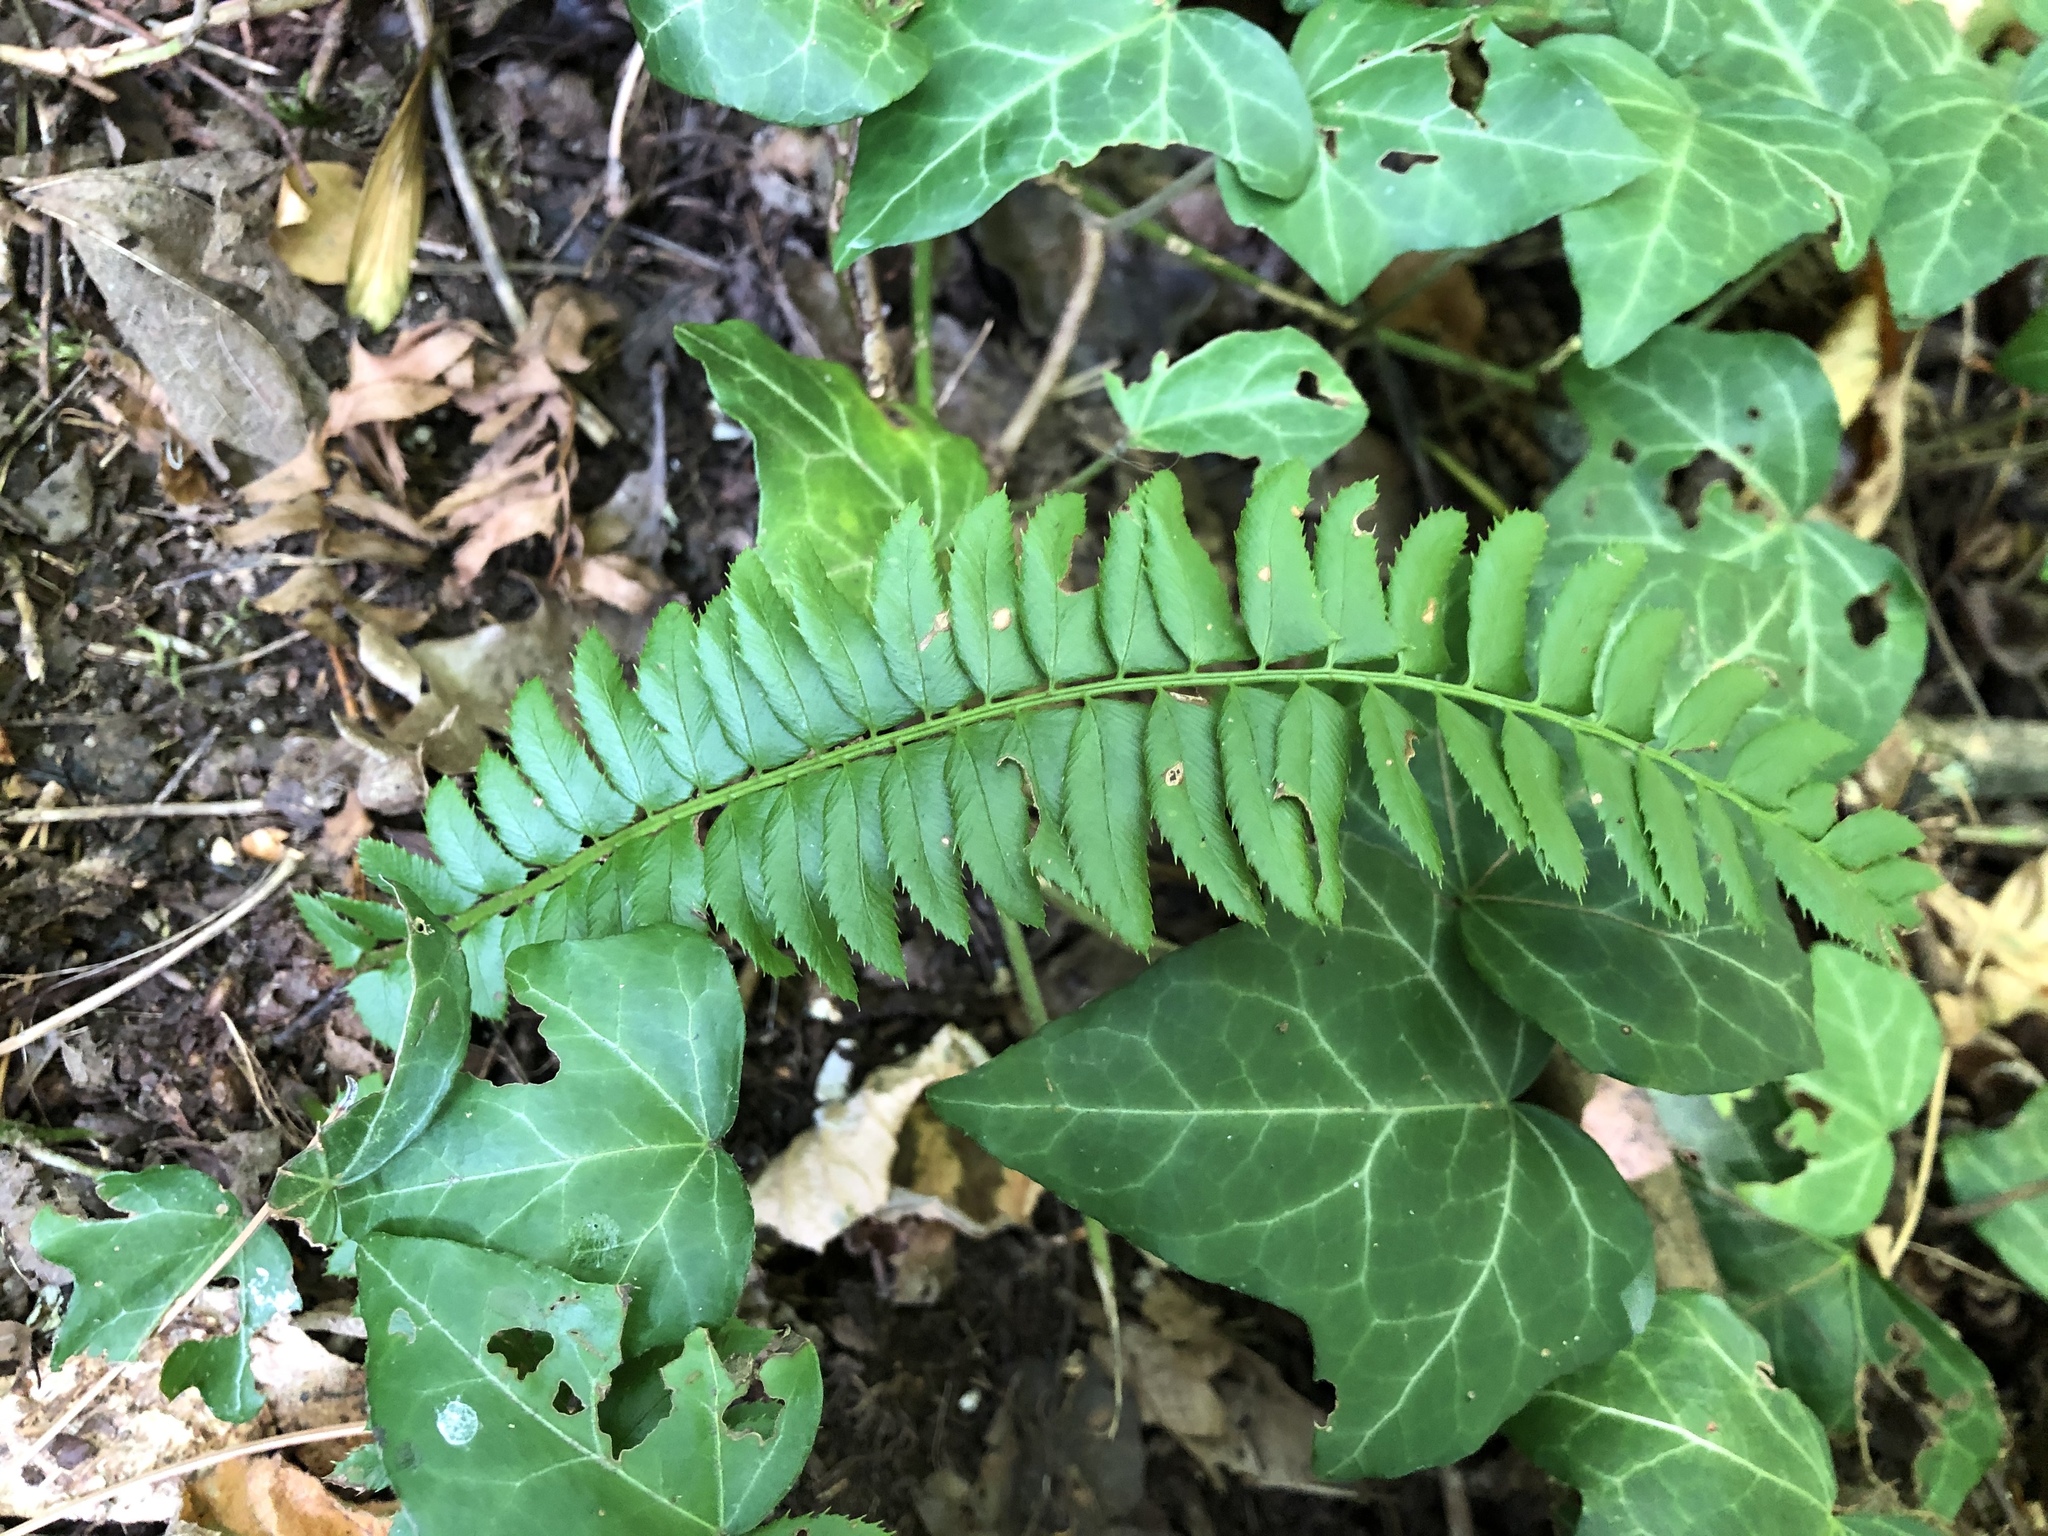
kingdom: Plantae
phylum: Tracheophyta
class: Polypodiopsida
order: Polypodiales
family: Dryopteridaceae
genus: Polystichum
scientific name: Polystichum lonchitis
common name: Holly fern
